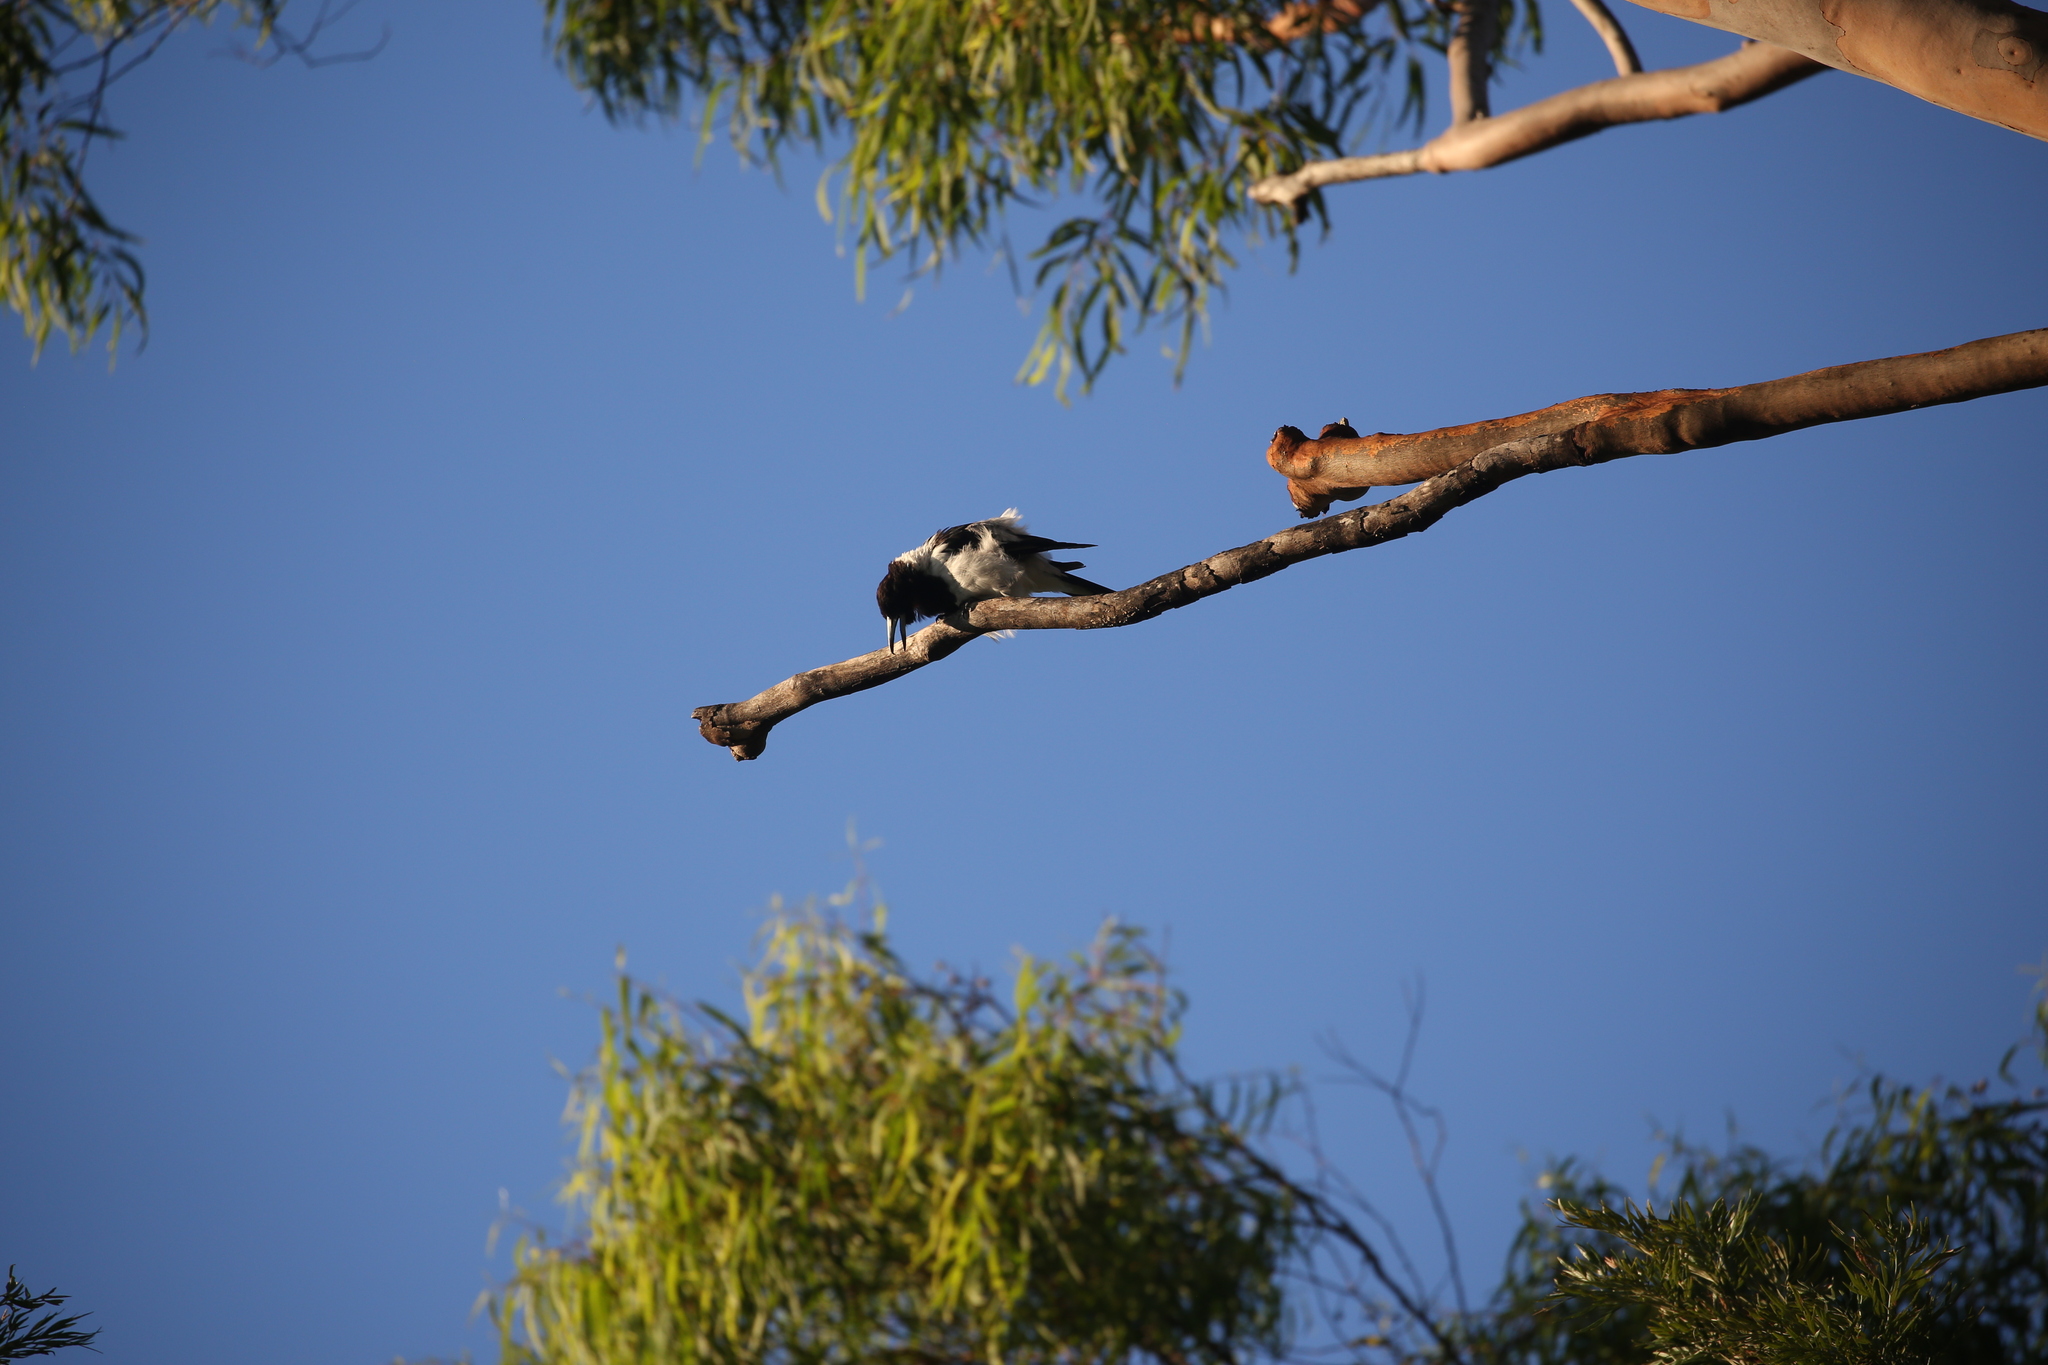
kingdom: Animalia
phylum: Chordata
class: Aves
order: Passeriformes
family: Cracticidae
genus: Cracticus
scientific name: Cracticus nigrogularis
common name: Pied butcherbird
